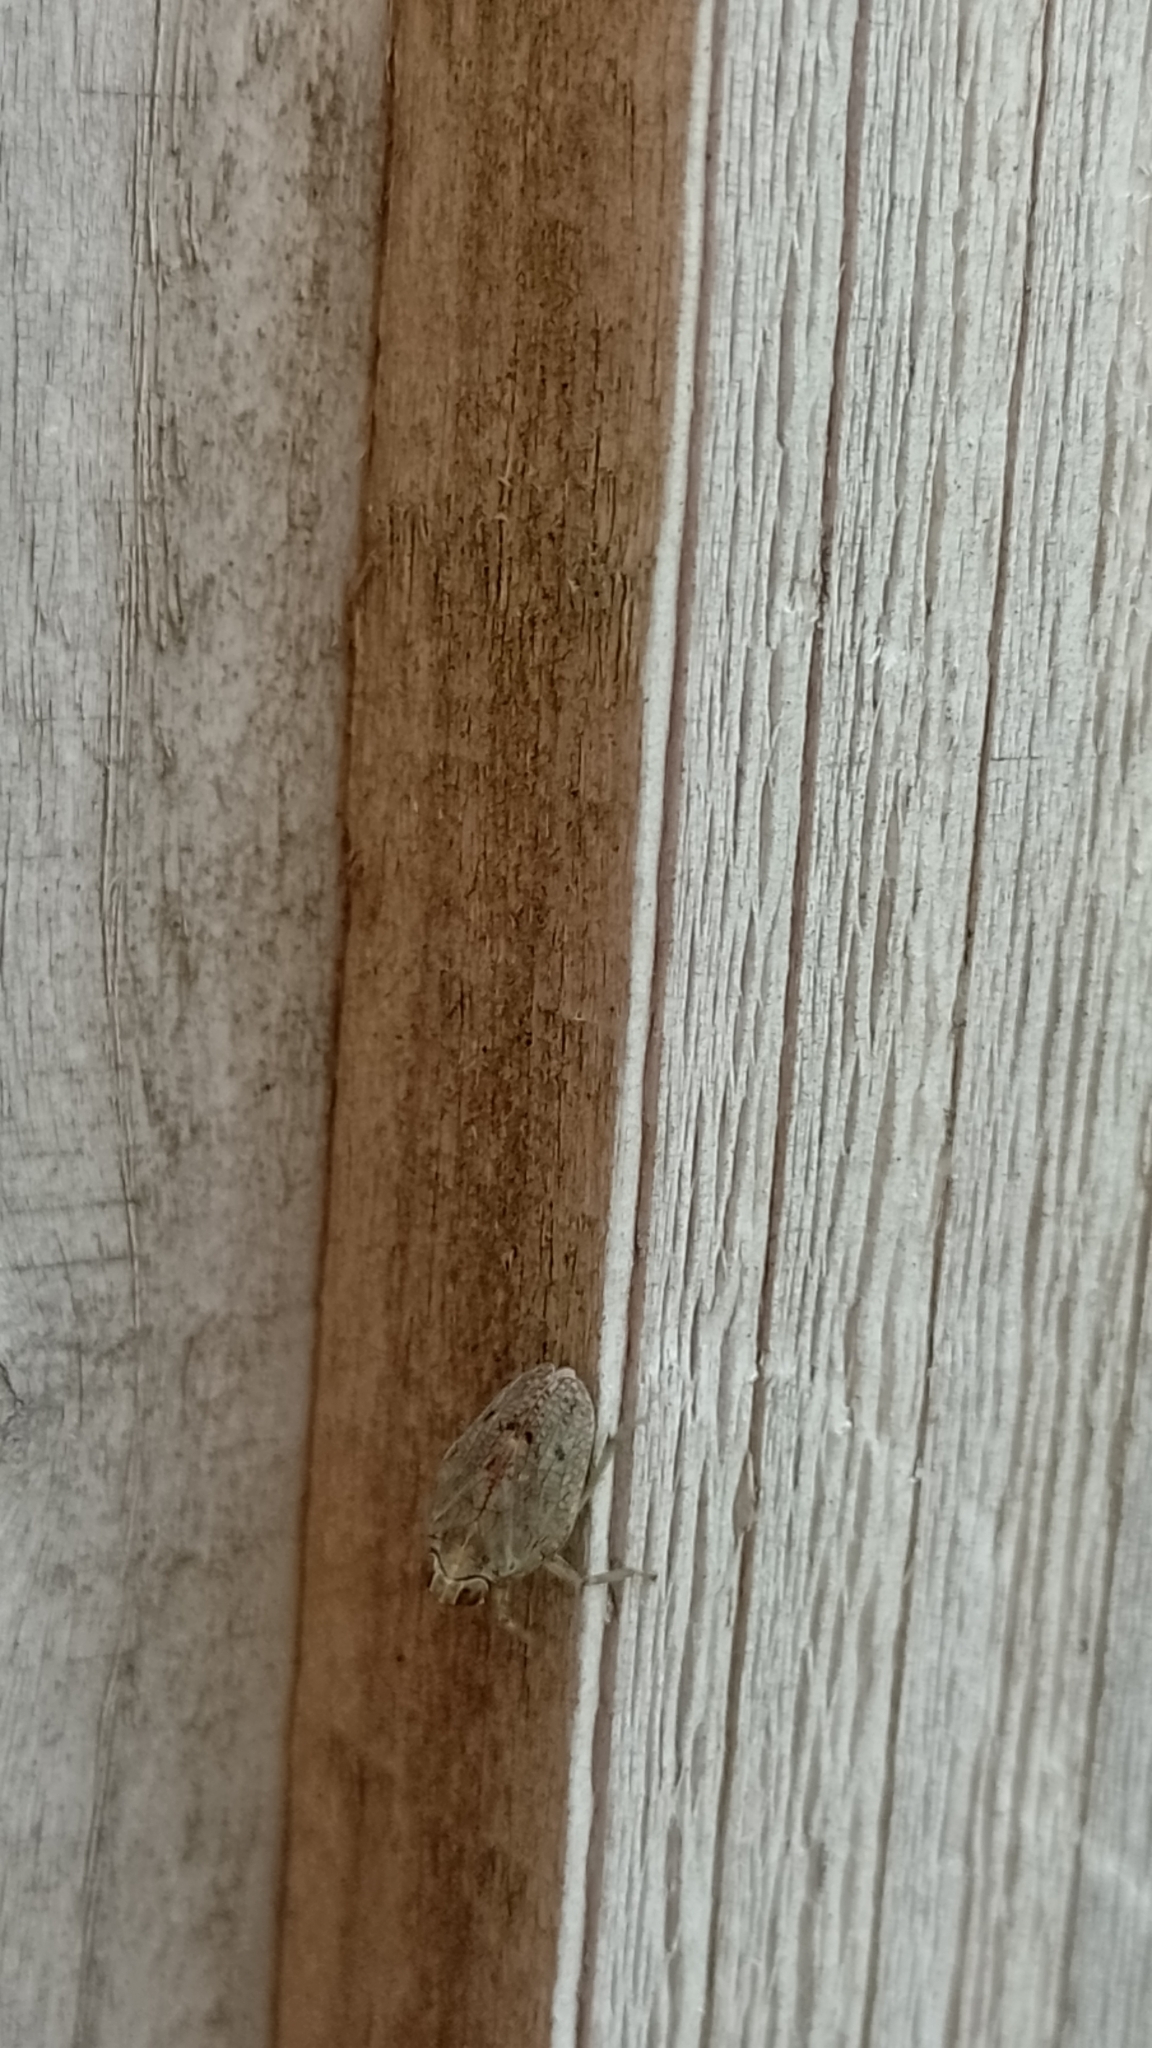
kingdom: Animalia
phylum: Arthropoda
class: Insecta
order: Hemiptera
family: Issidae
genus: Issus
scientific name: Issus coleoptratus
